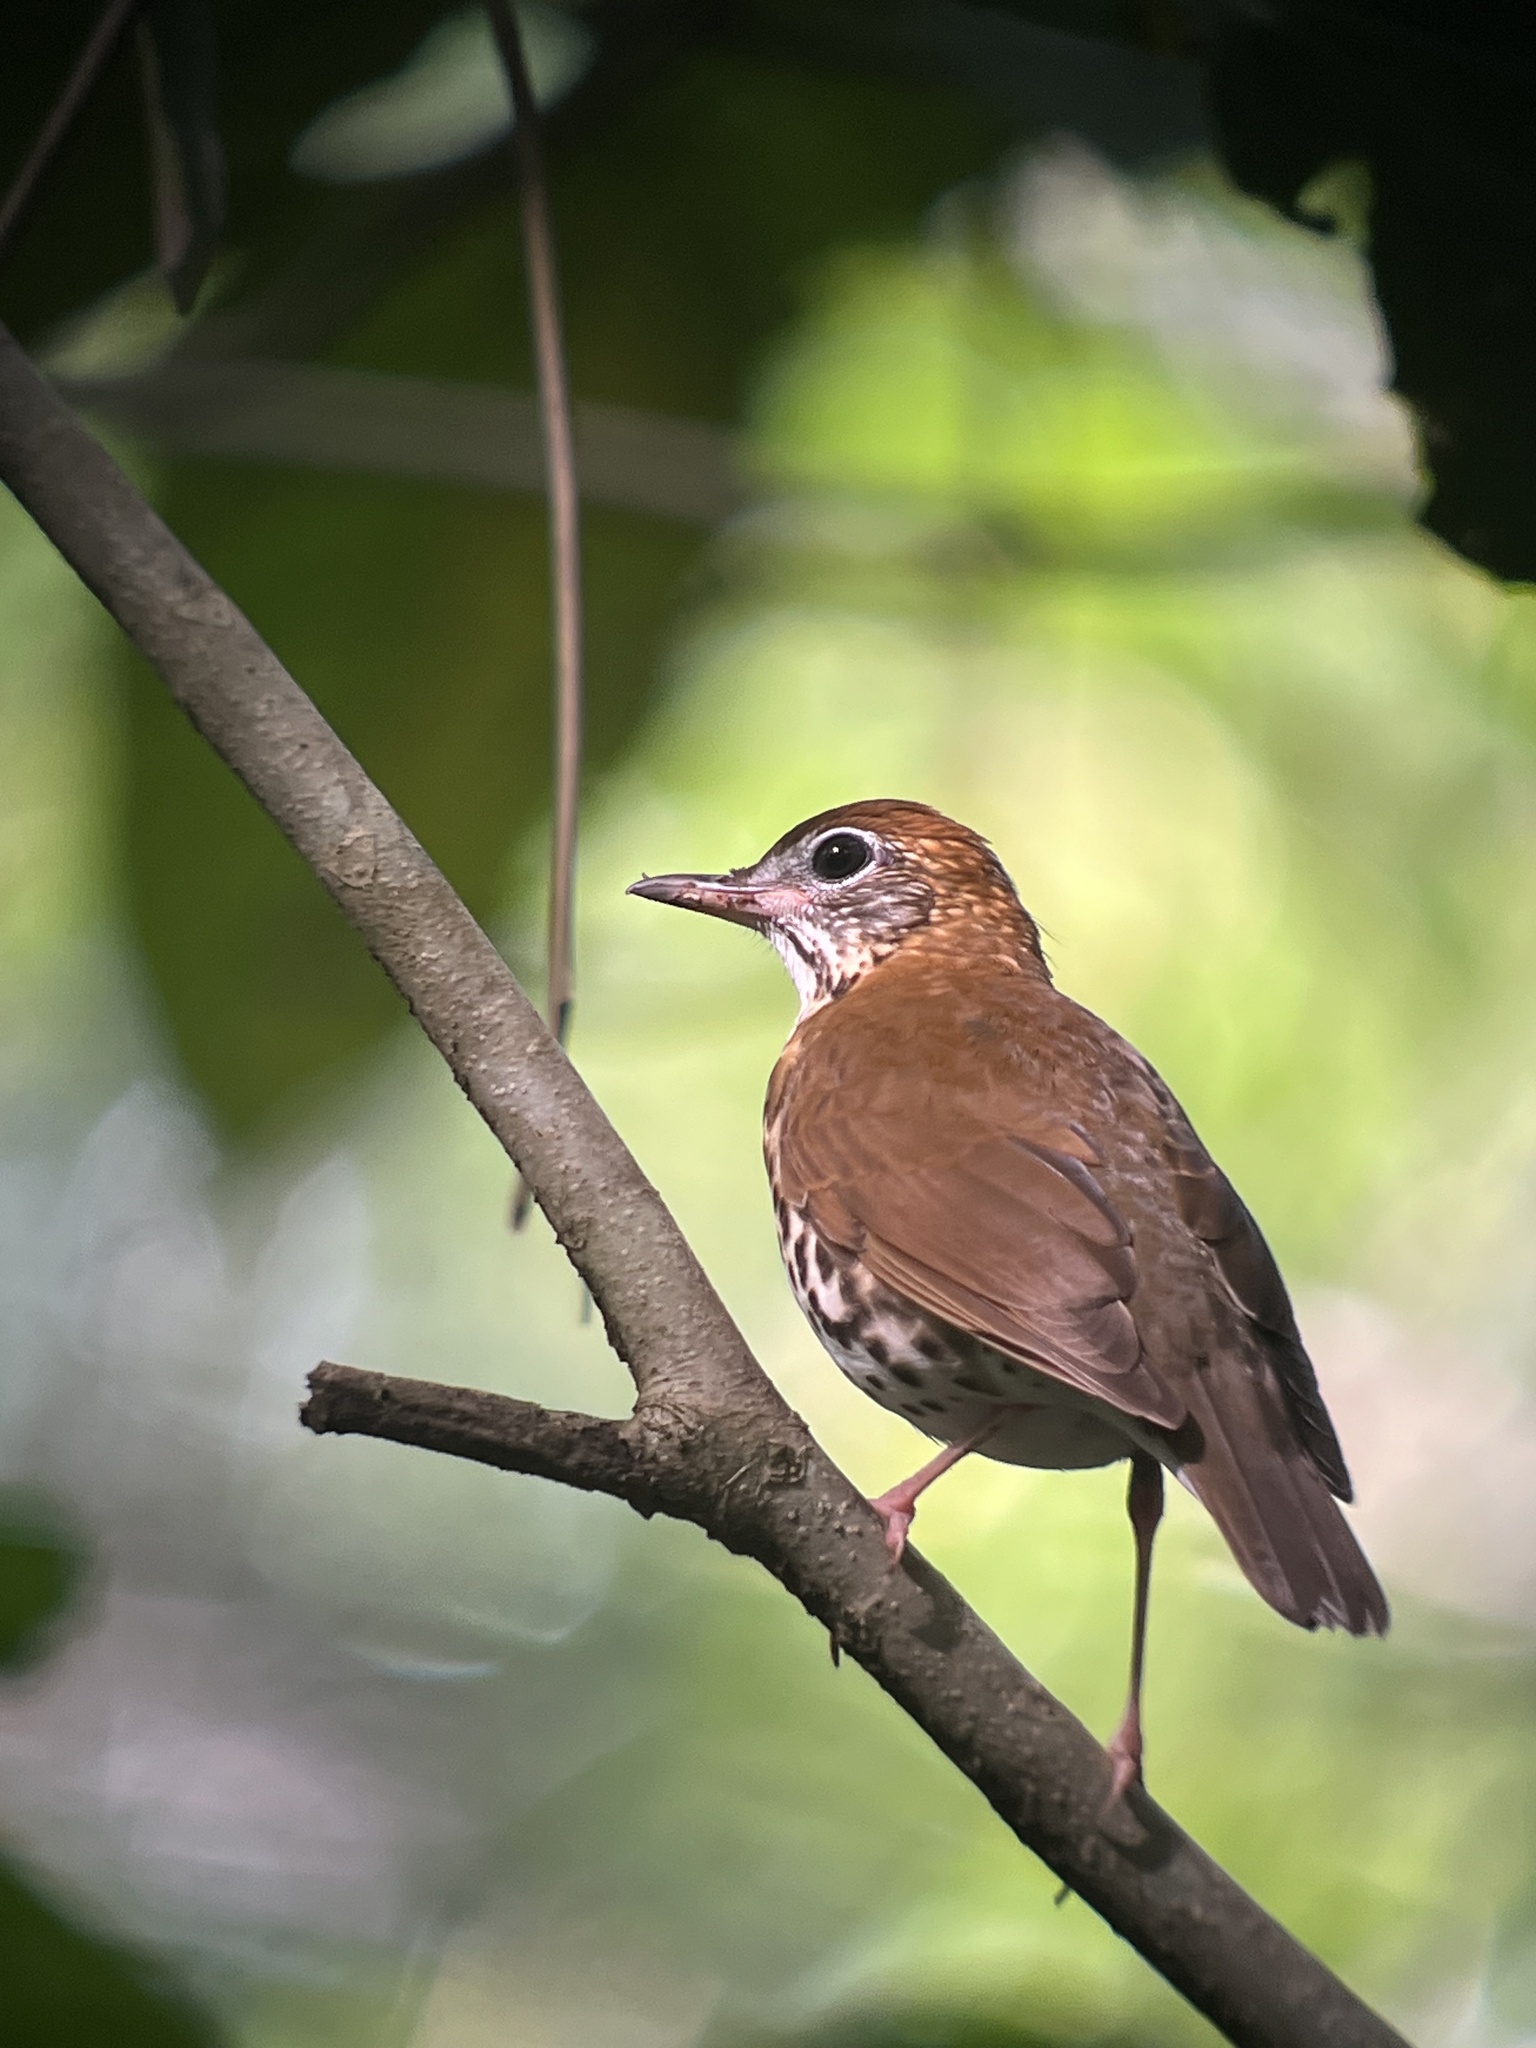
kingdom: Animalia
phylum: Chordata
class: Aves
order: Passeriformes
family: Turdidae
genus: Hylocichla
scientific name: Hylocichla mustelina
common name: Wood thrush
